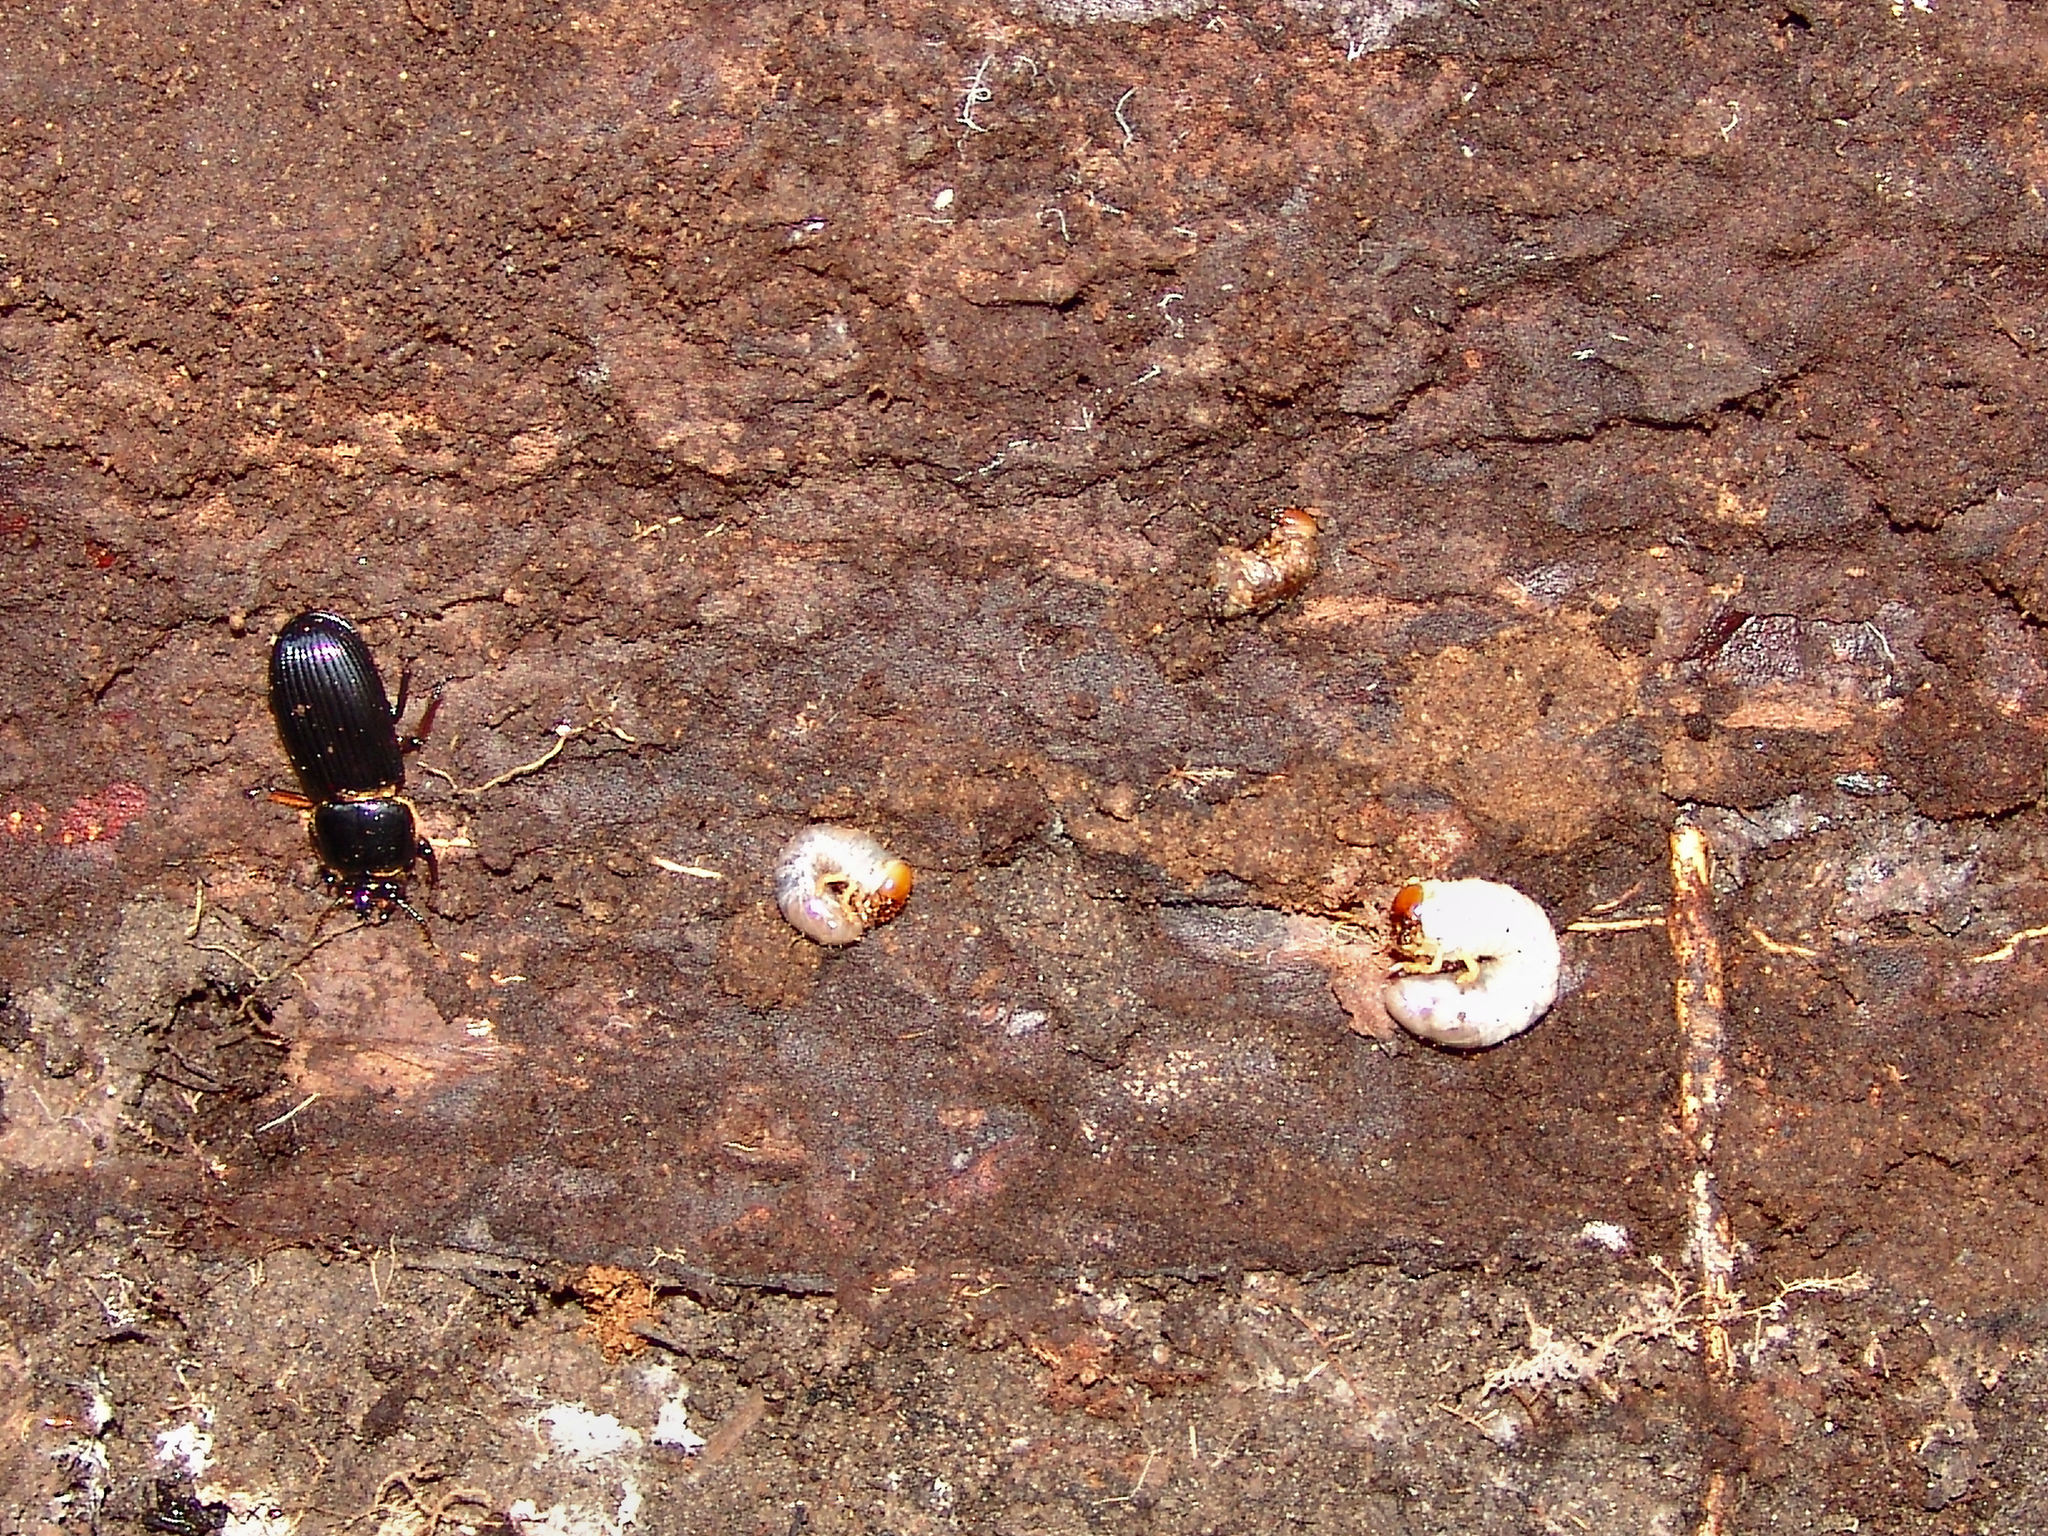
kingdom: Animalia
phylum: Arthropoda
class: Insecta
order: Coleoptera
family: Passalidae
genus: Odontotaenius
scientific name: Odontotaenius disjunctus
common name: Patent leather beetle
